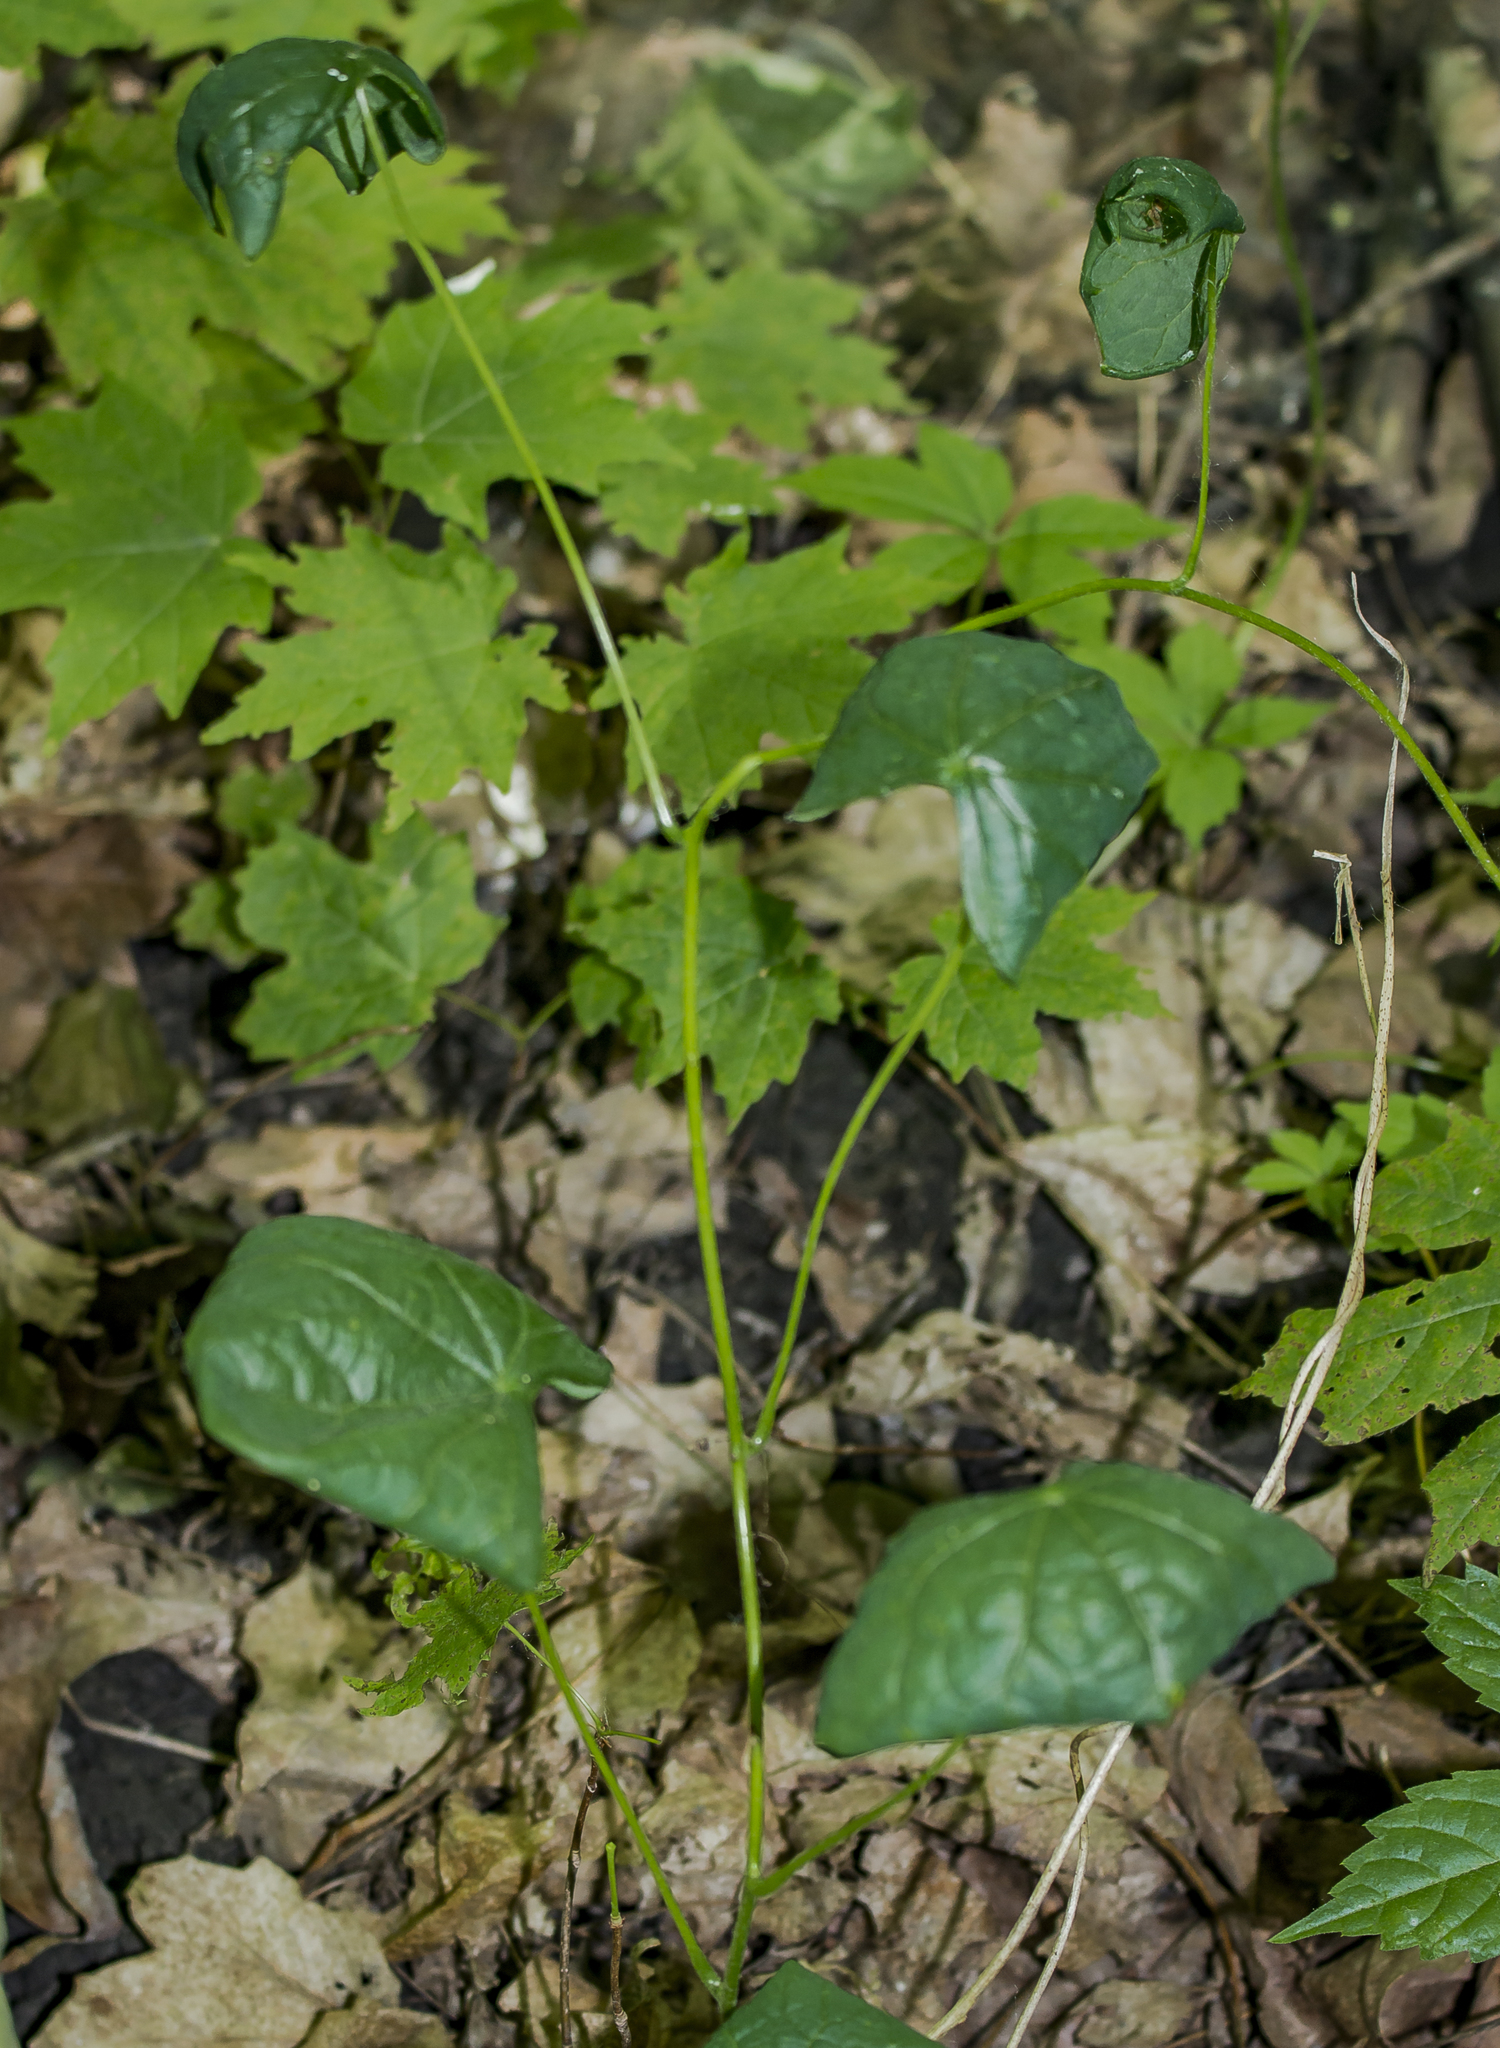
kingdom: Plantae
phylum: Tracheophyta
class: Magnoliopsida
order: Ranunculales
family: Menispermaceae
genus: Menispermum
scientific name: Menispermum canadense
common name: Moonseed
